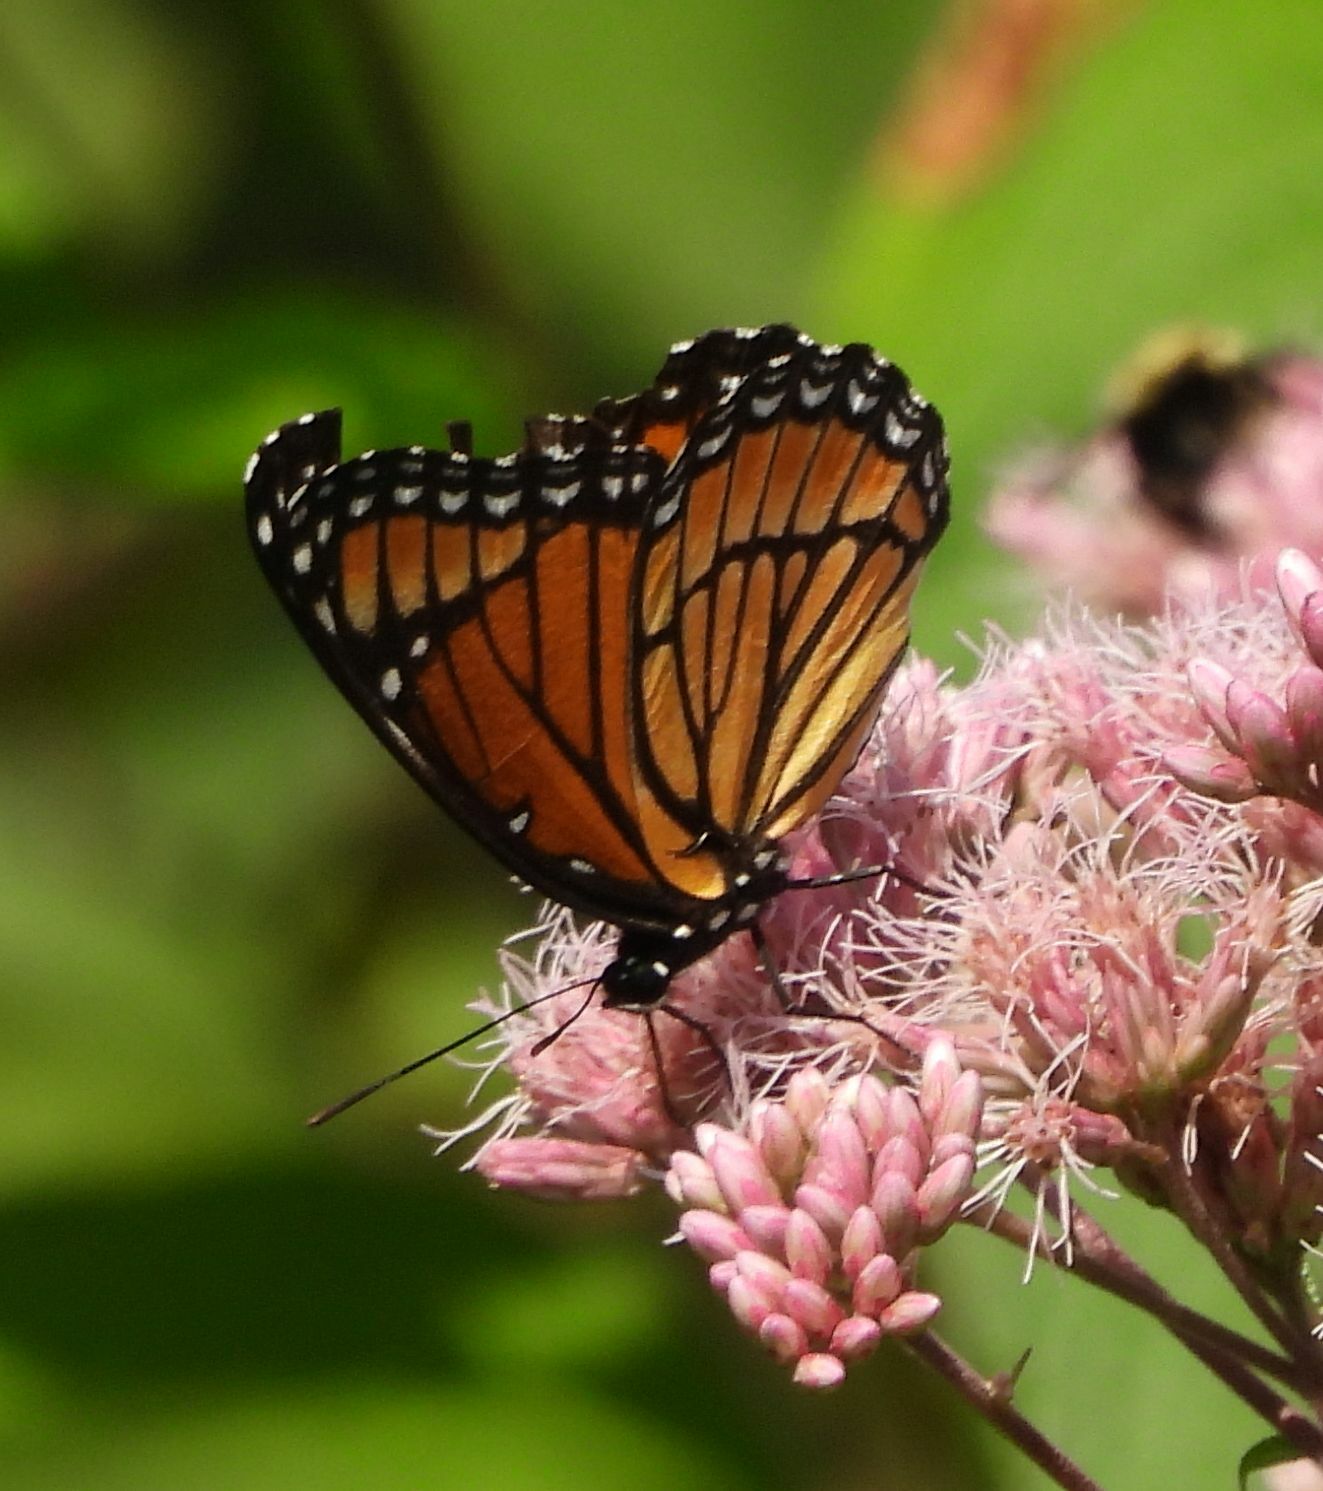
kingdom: Animalia
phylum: Arthropoda
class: Insecta
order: Lepidoptera
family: Nymphalidae
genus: Limenitis
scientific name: Limenitis archippus
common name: Viceroy
